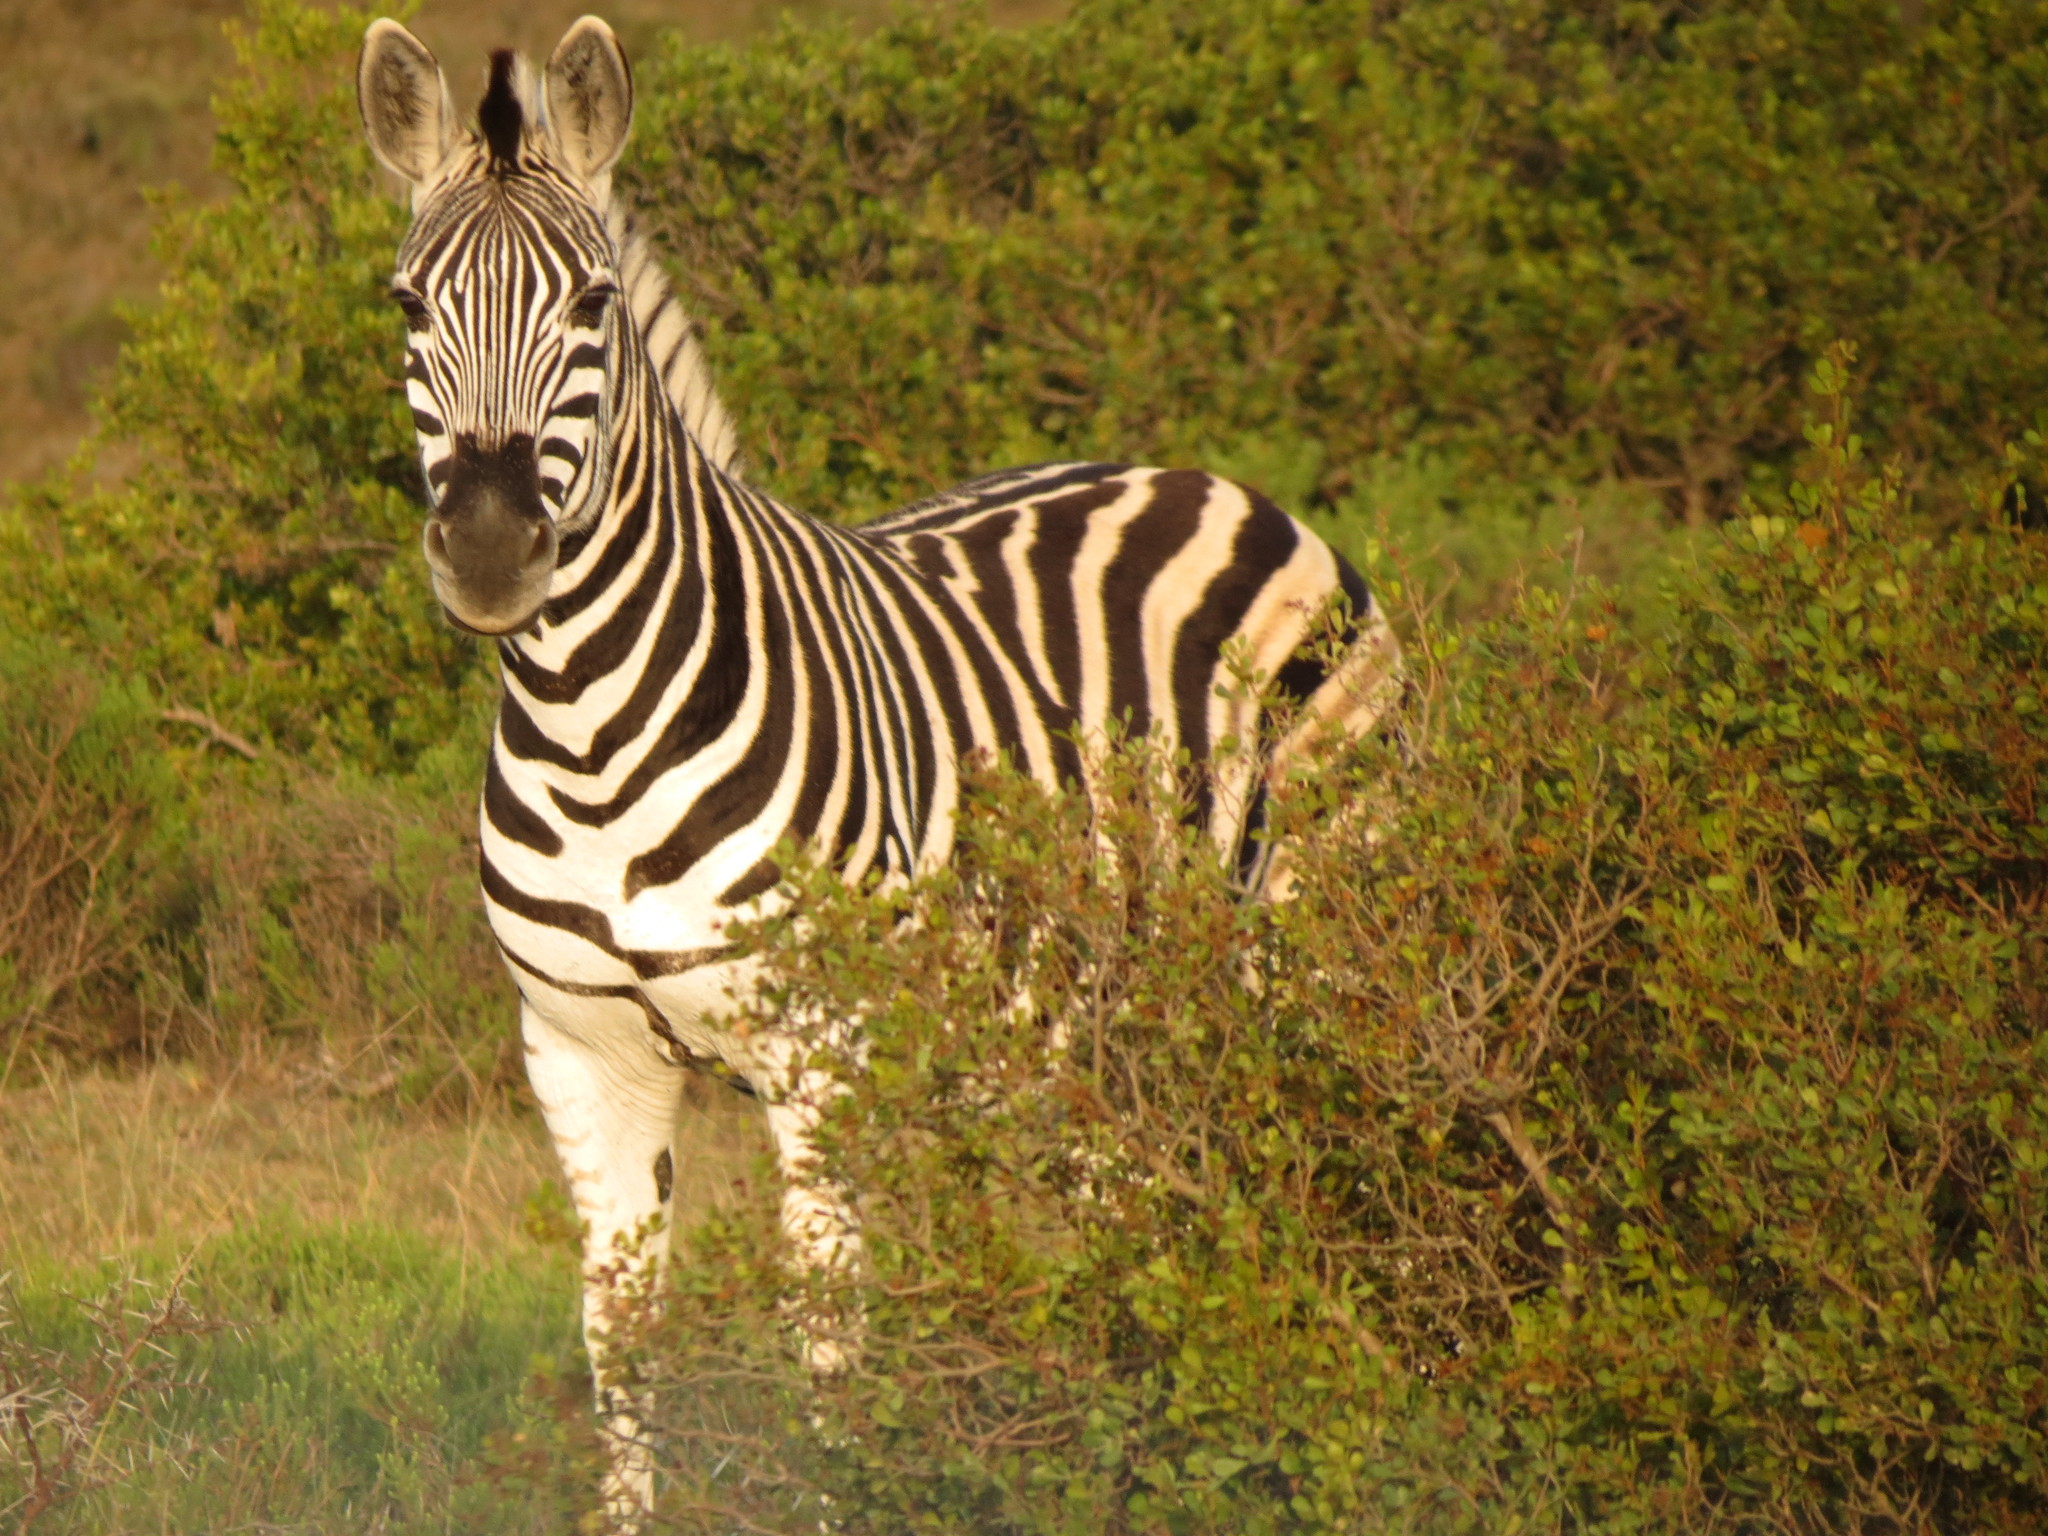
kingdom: Animalia
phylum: Chordata
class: Mammalia
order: Perissodactyla
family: Equidae
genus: Equus
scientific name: Equus quagga
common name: Plains zebra
